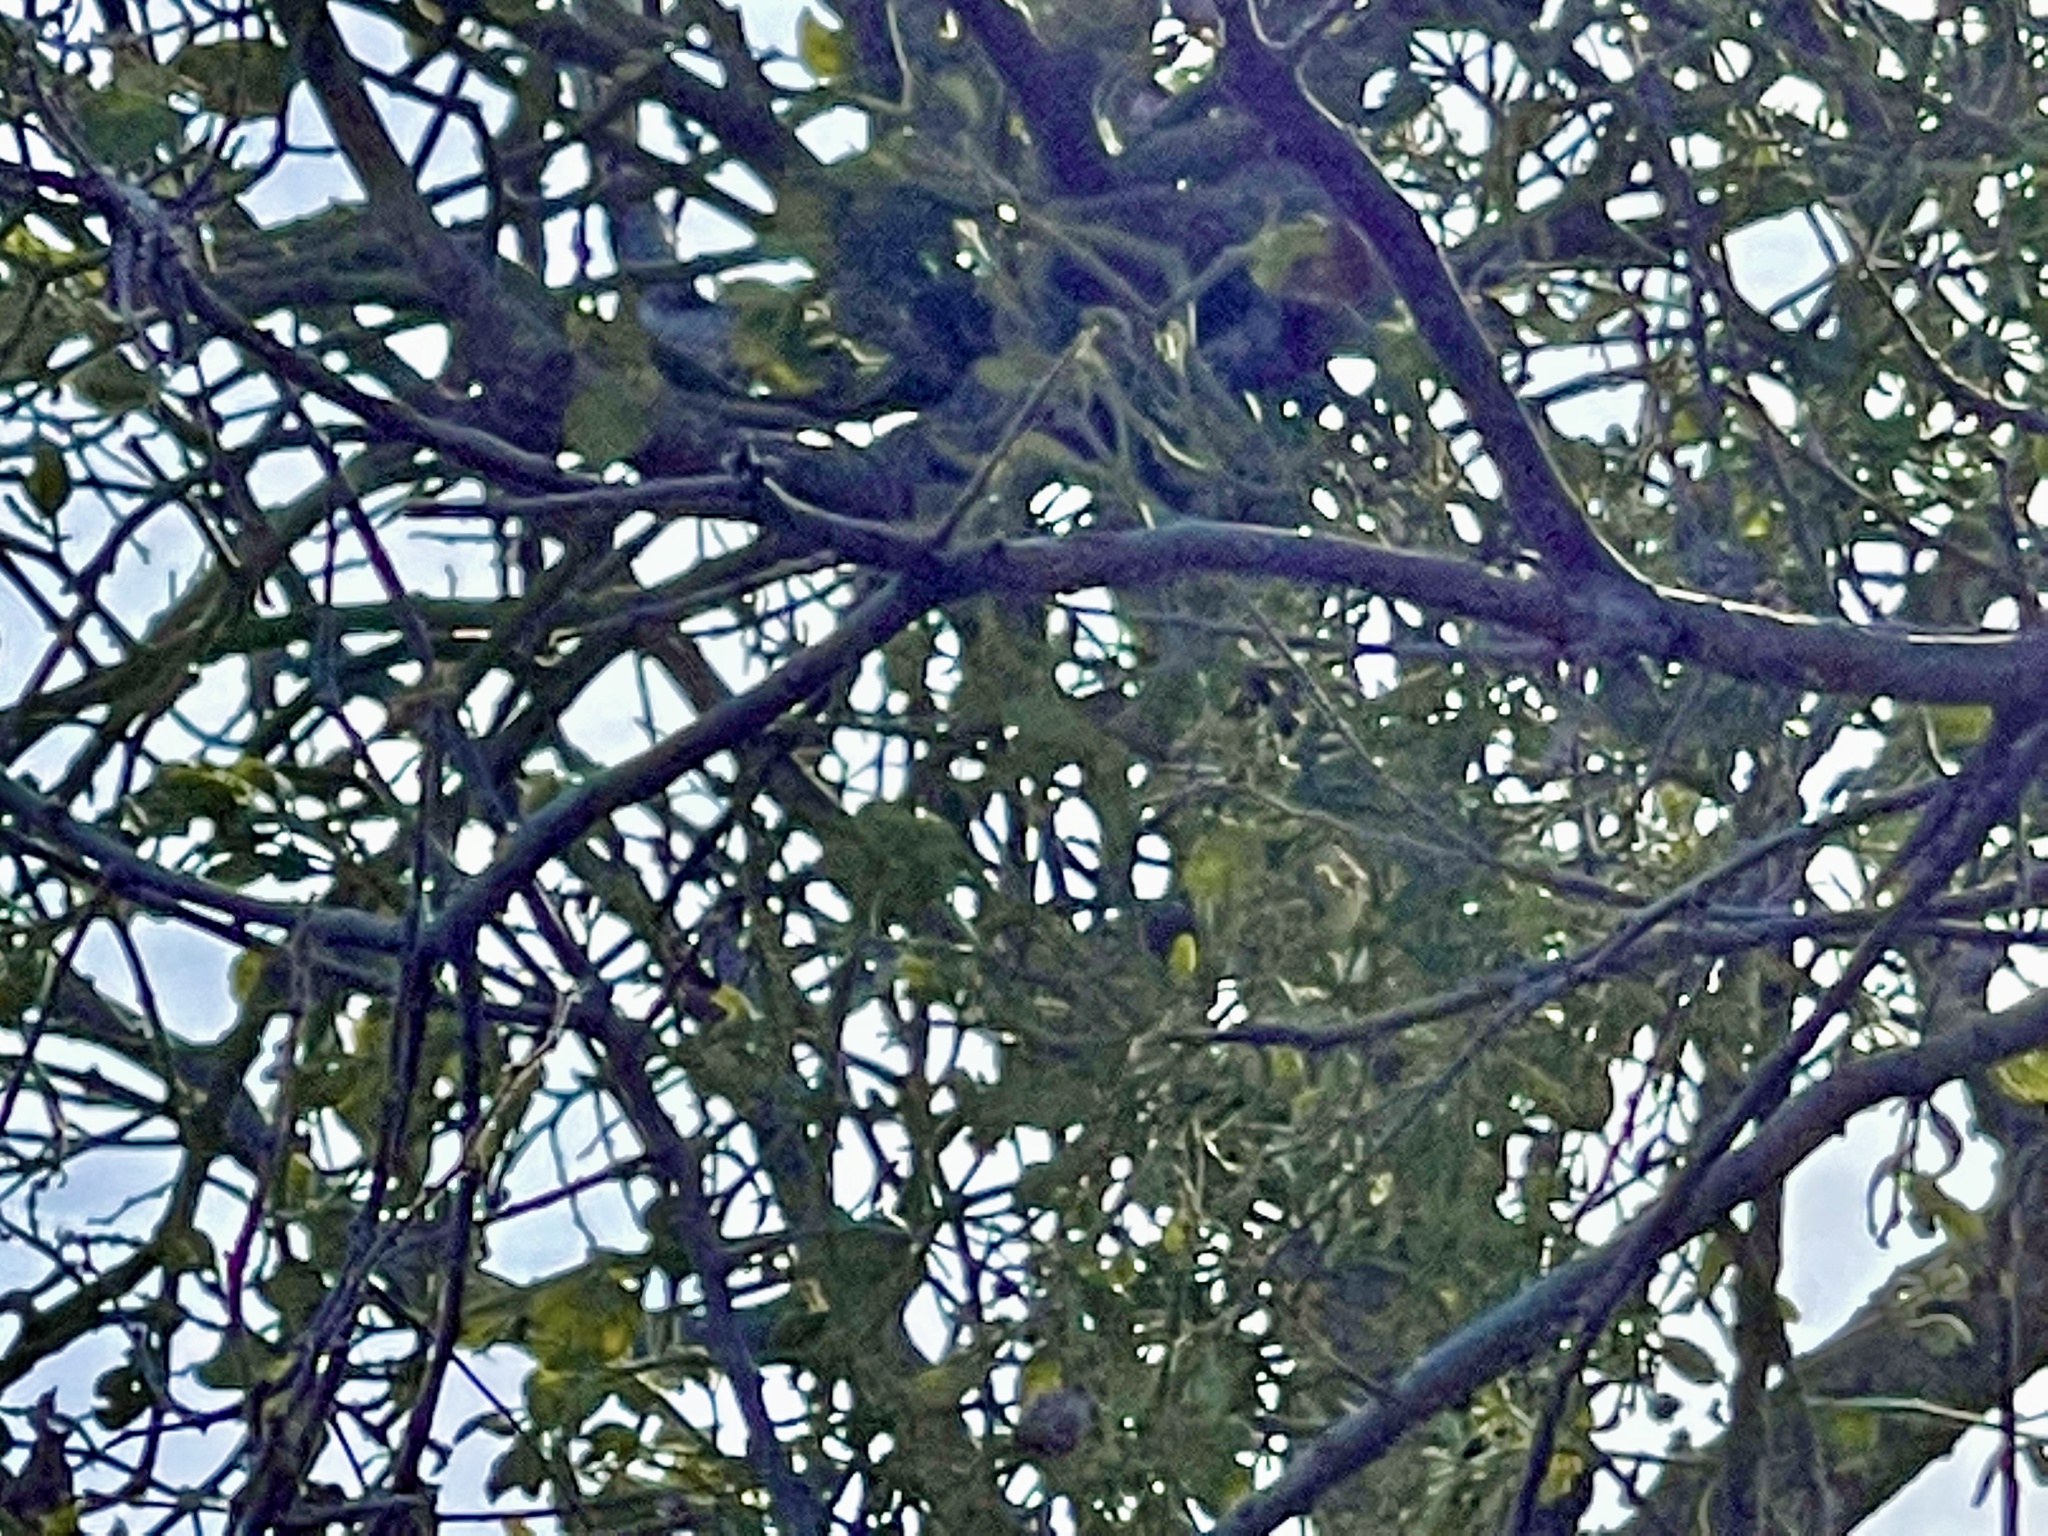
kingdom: Plantae
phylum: Tracheophyta
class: Magnoliopsida
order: Santalales
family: Viscaceae
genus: Phoradendron
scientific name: Phoradendron leucarpum
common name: Pacific mistletoe
